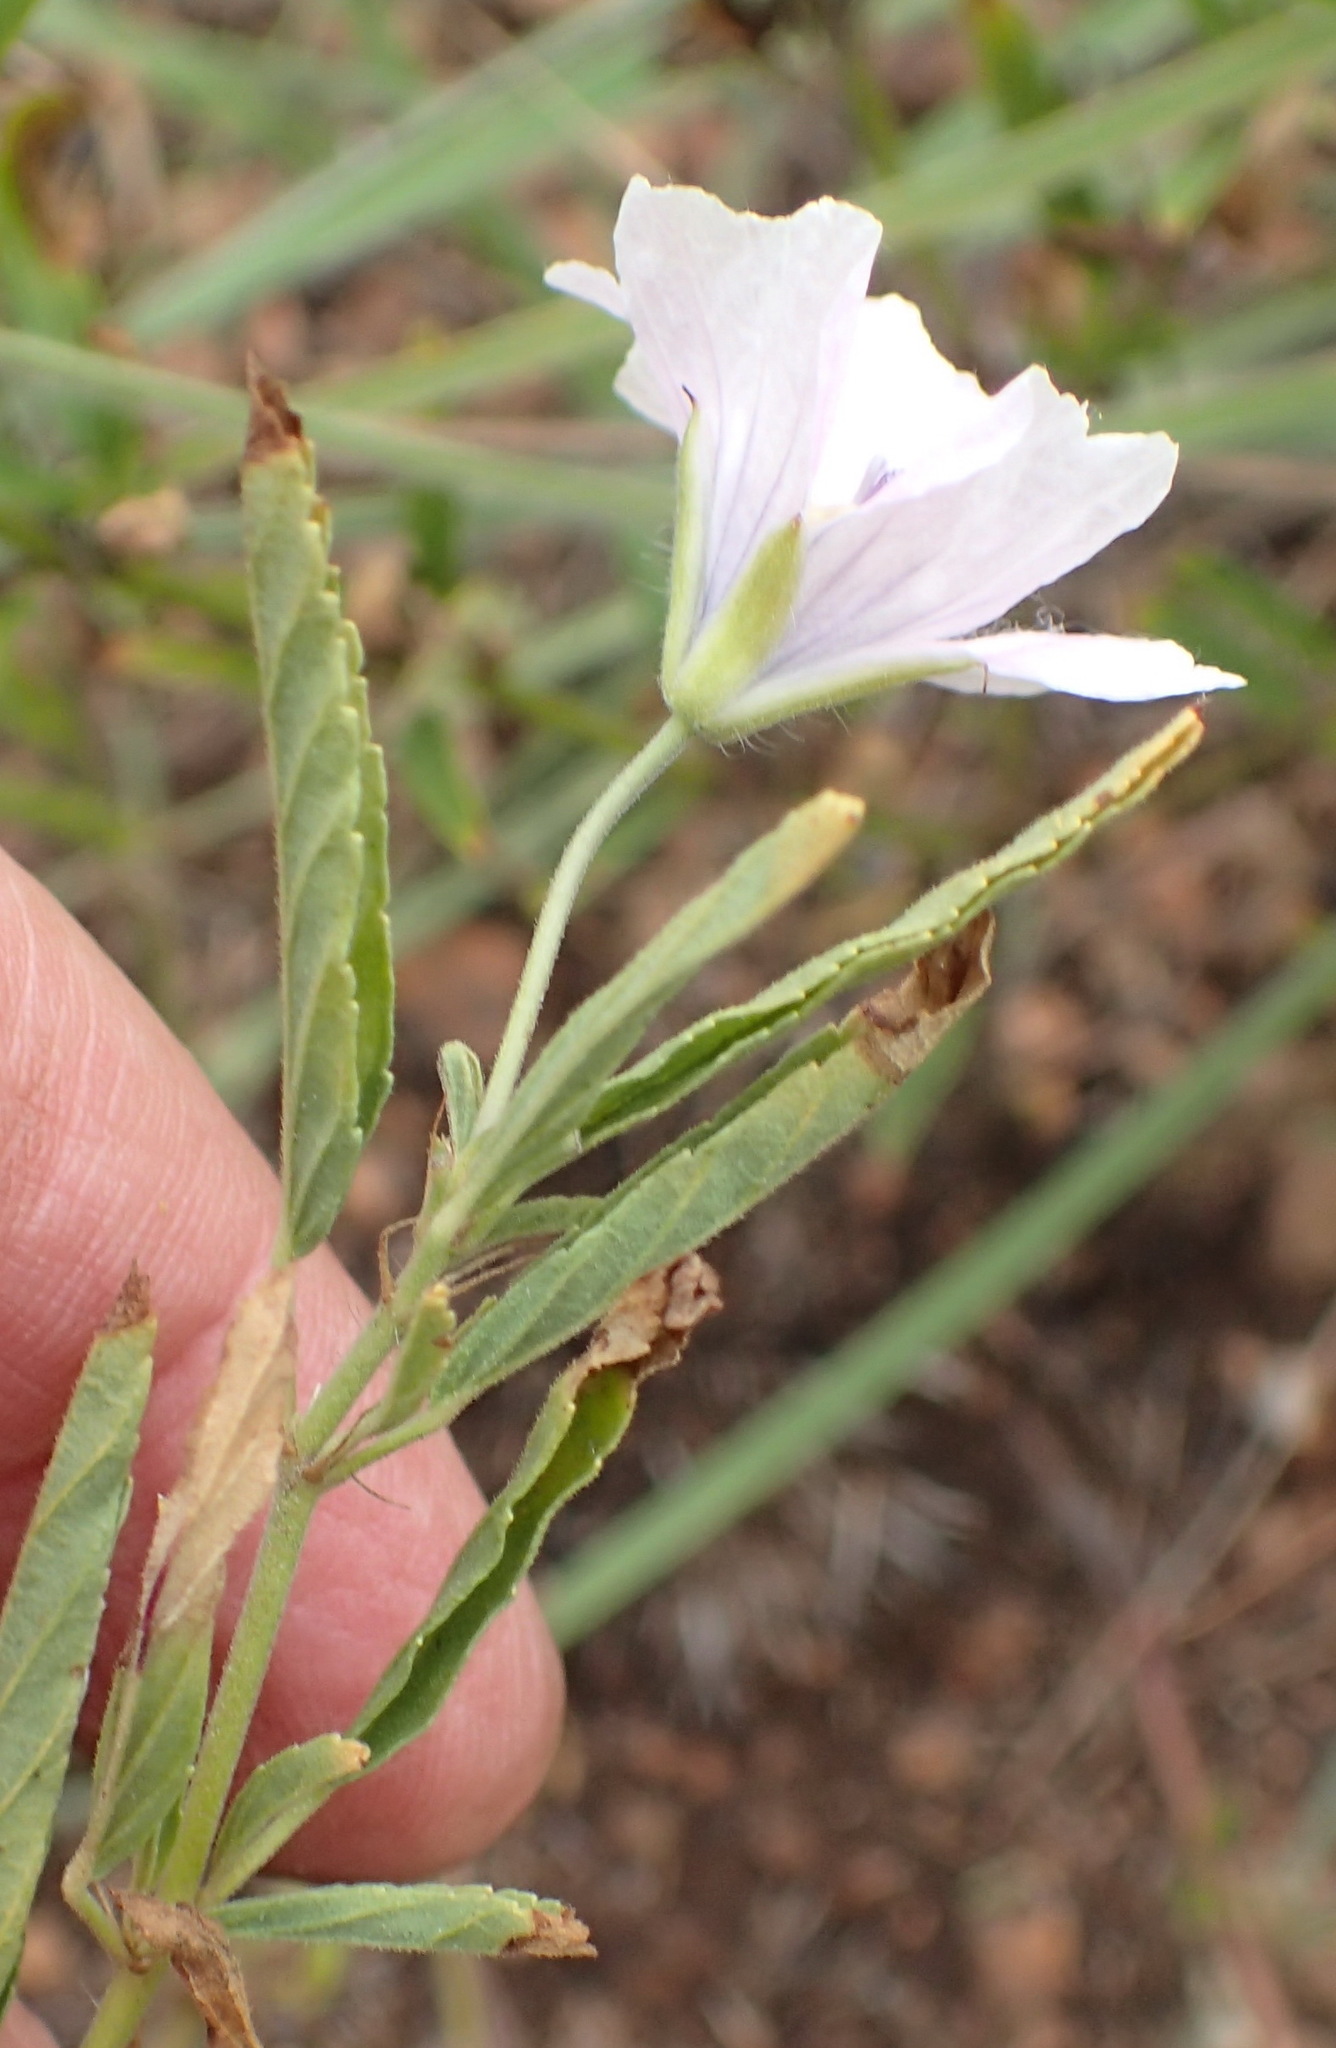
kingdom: Plantae
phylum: Tracheophyta
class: Magnoliopsida
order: Geraniales
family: Geraniaceae
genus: Monsonia
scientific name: Monsonia angustifolia
